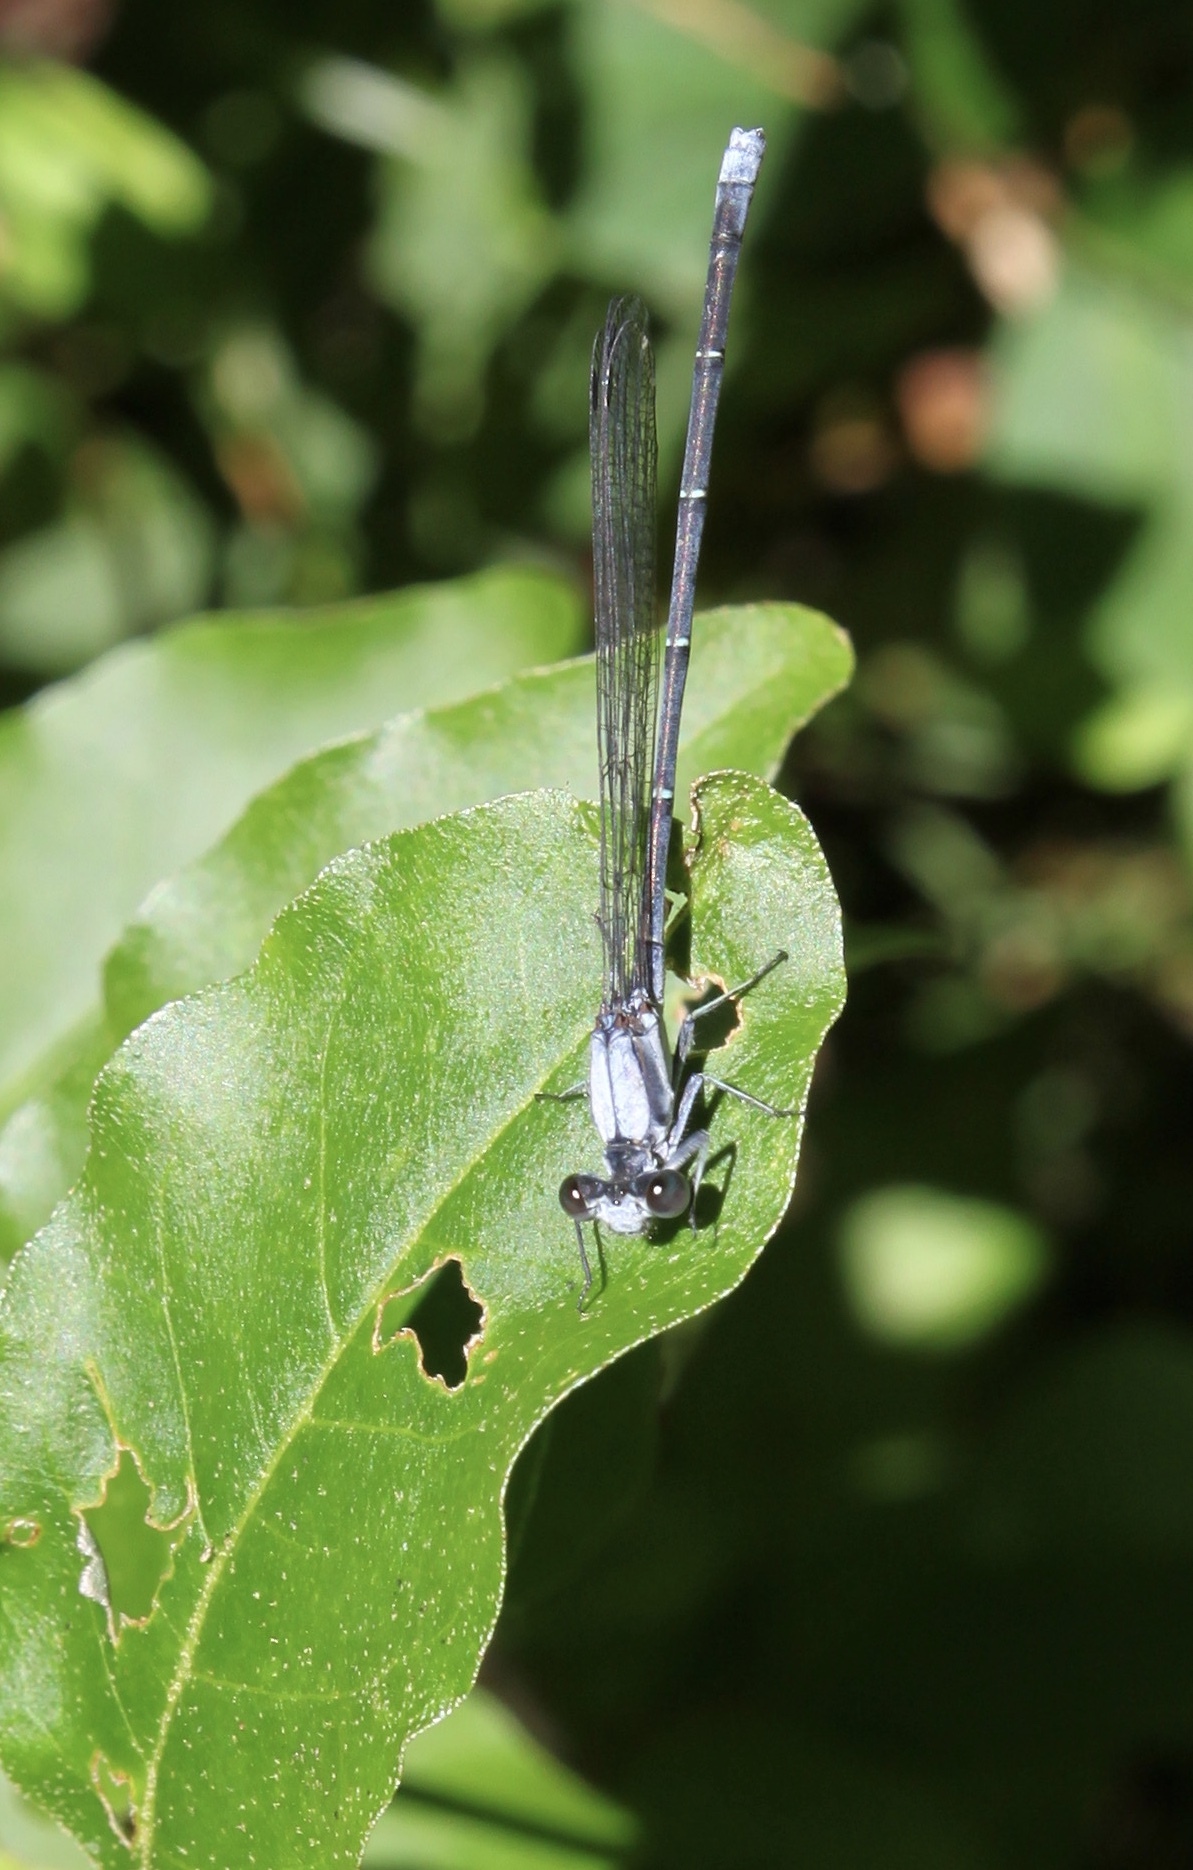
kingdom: Animalia
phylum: Arthropoda
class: Insecta
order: Odonata
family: Coenagrionidae
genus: Argia
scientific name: Argia moesta
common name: Powdered dancer
